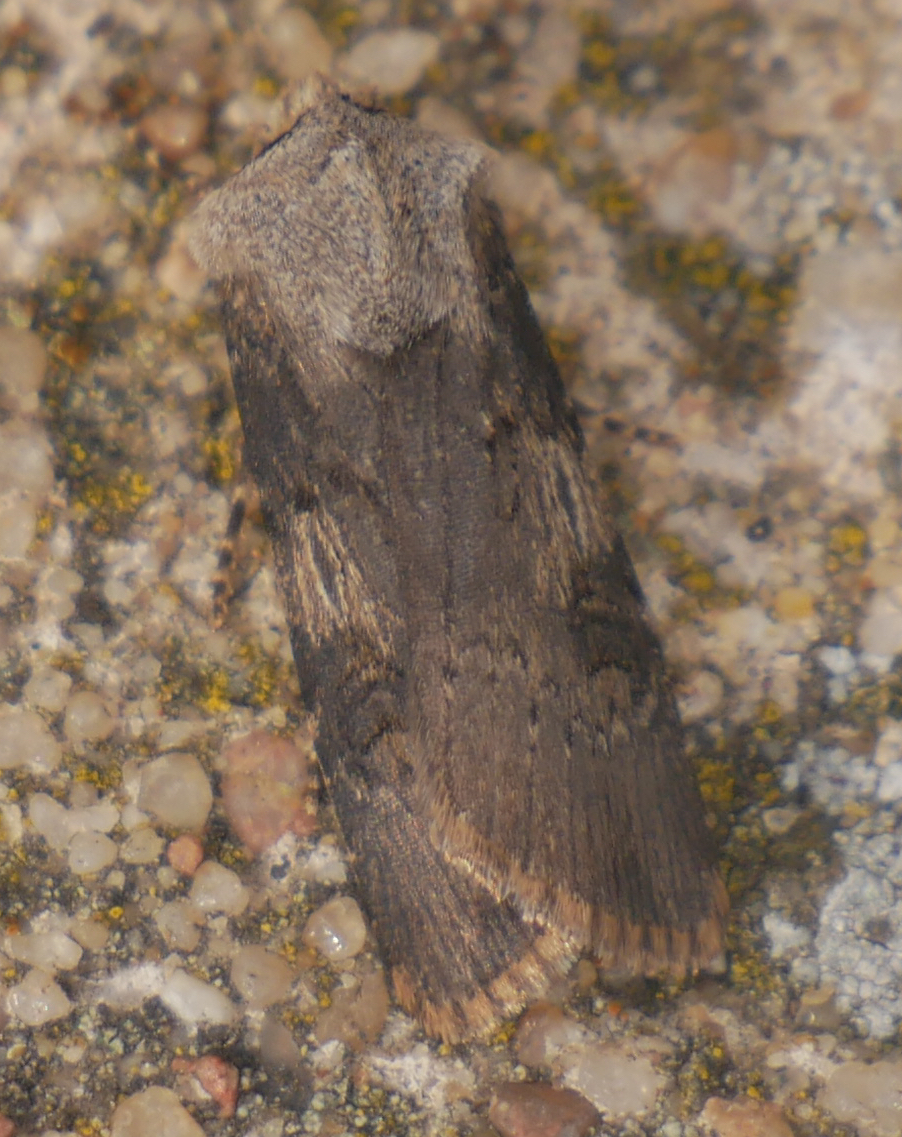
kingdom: Animalia
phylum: Arthropoda
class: Insecta
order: Lepidoptera
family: Noctuidae
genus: Agrotis
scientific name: Agrotis puta
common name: Shuttle-shaped dart
